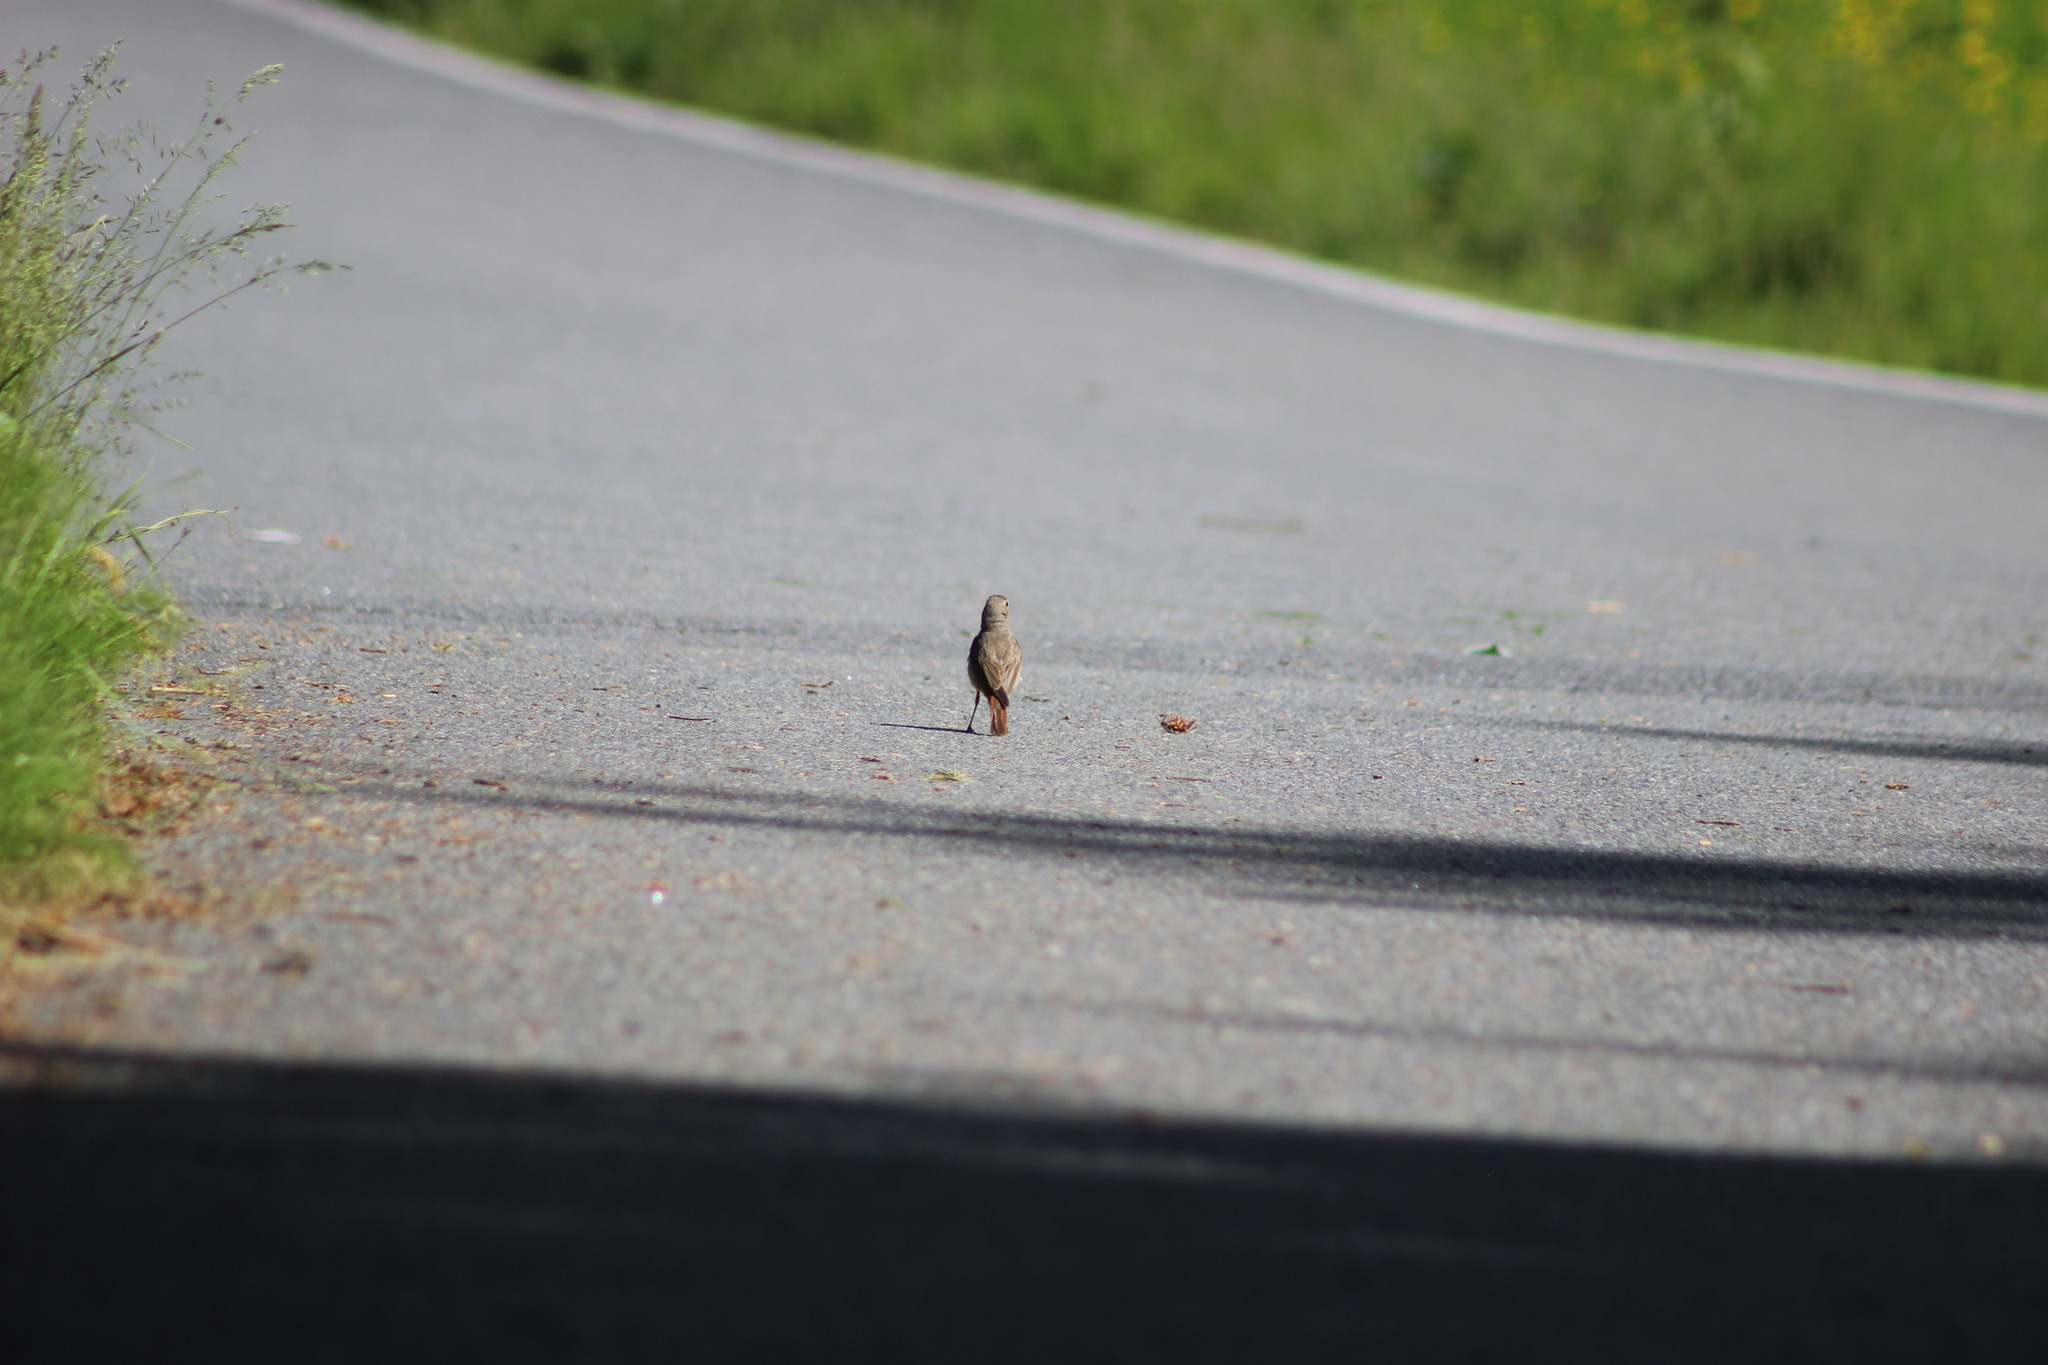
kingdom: Animalia
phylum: Chordata
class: Aves
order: Passeriformes
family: Muscicapidae
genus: Phoenicurus
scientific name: Phoenicurus phoenicurus
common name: Common redstart
